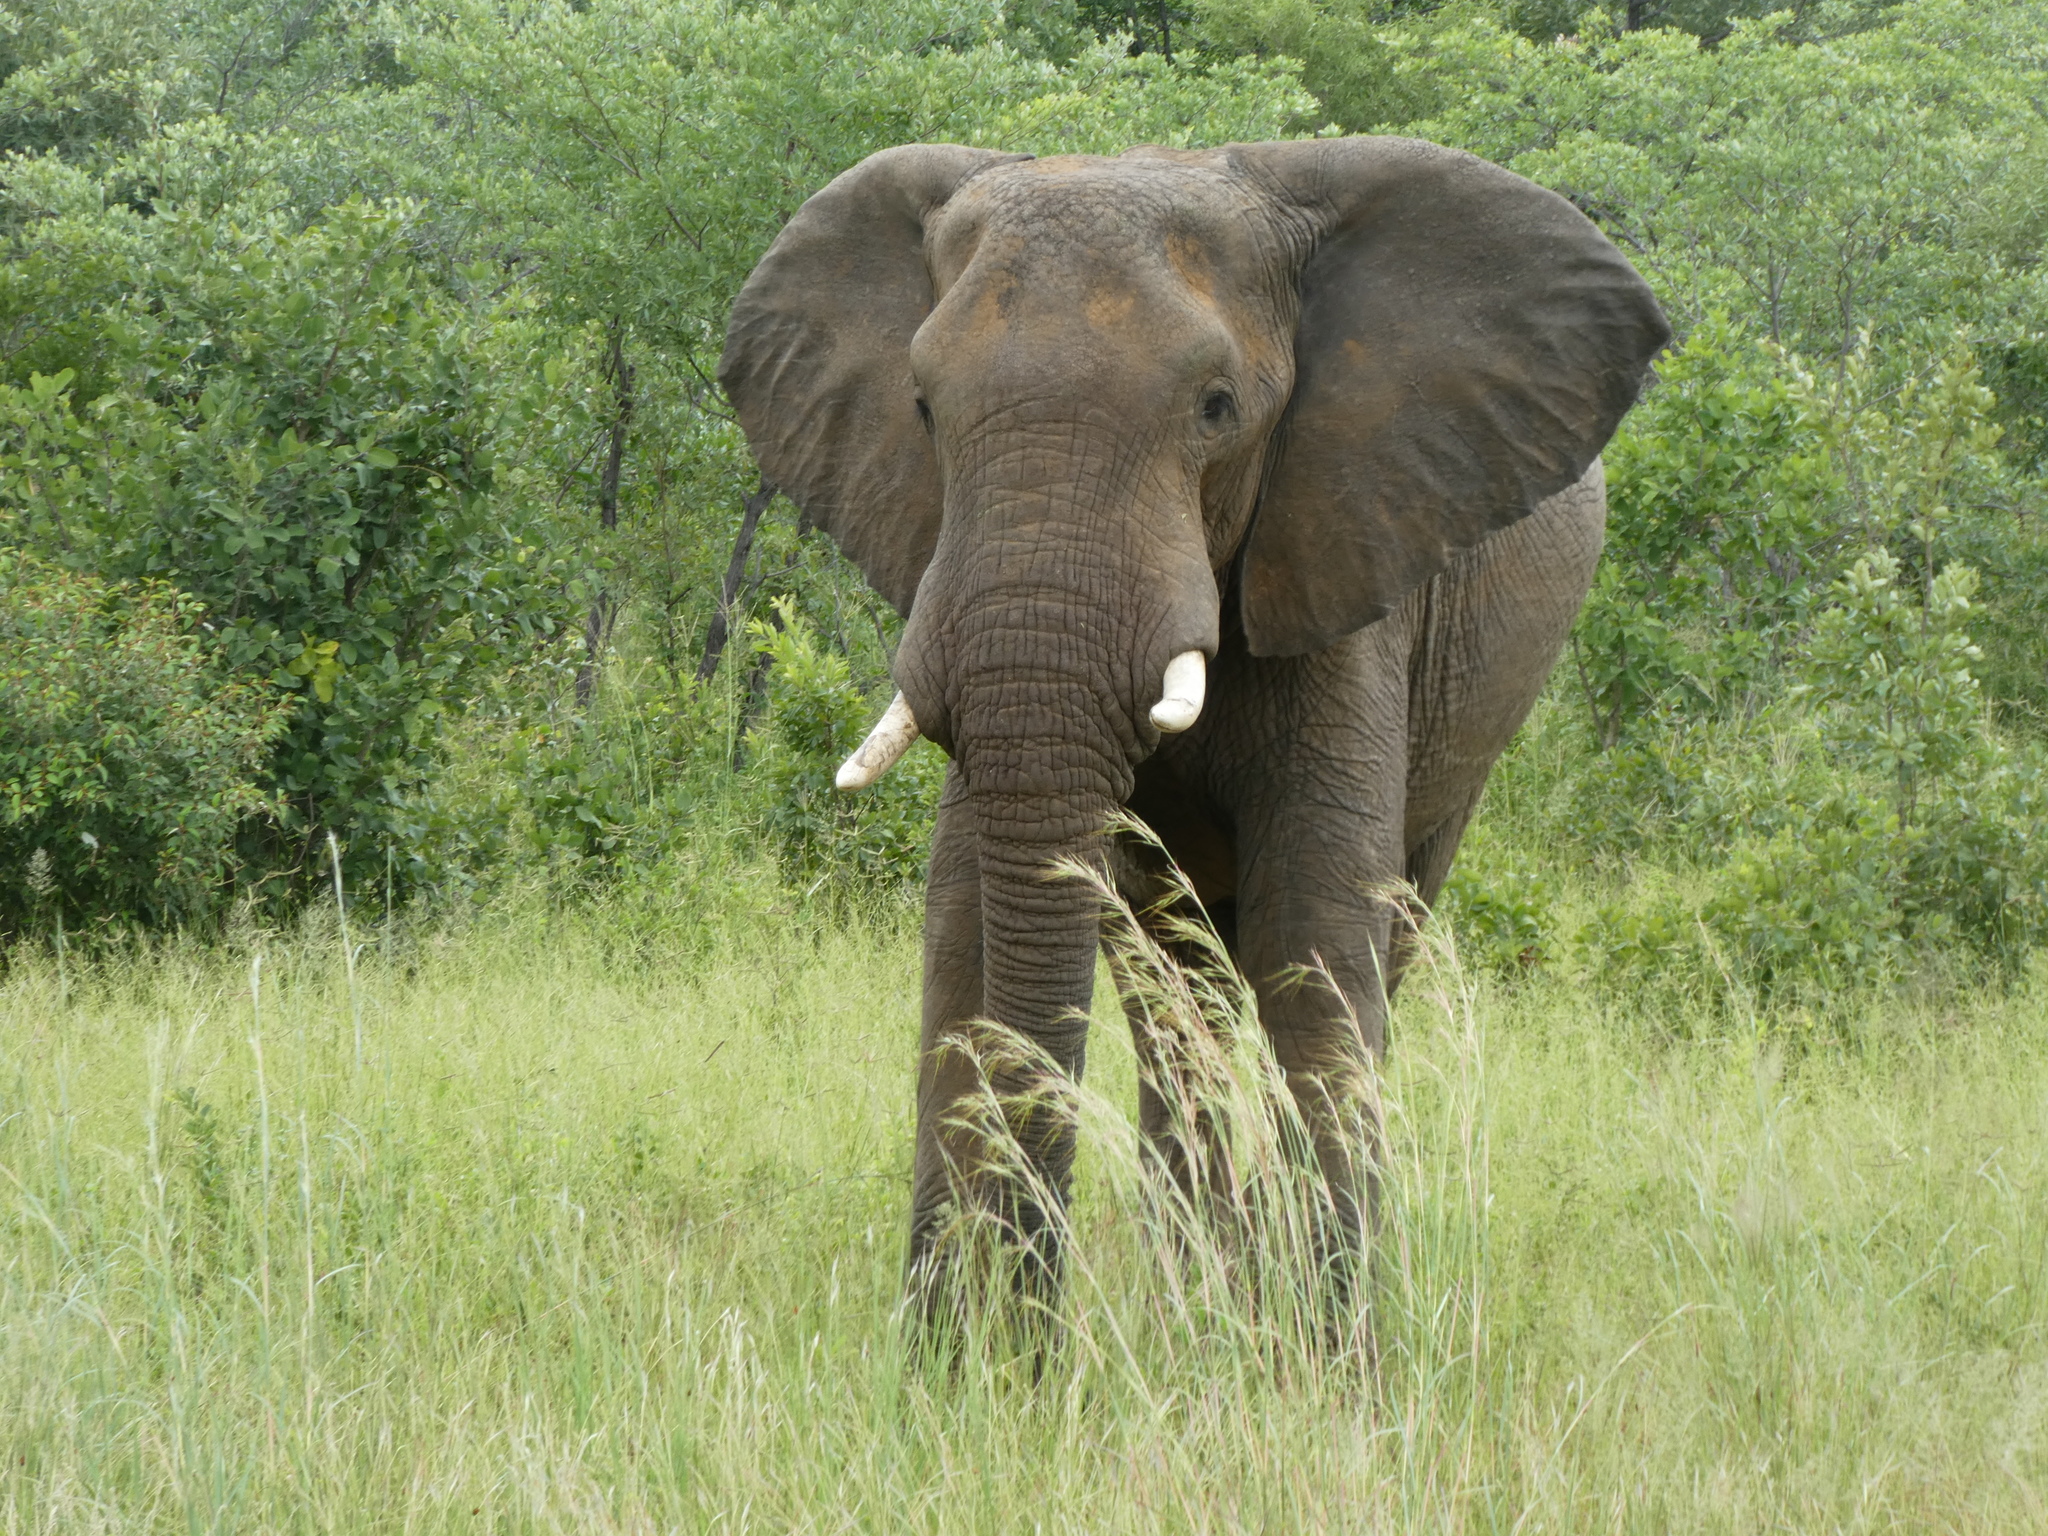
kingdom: Animalia
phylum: Chordata
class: Mammalia
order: Proboscidea
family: Elephantidae
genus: Loxodonta
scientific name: Loxodonta africana
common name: African elephant
